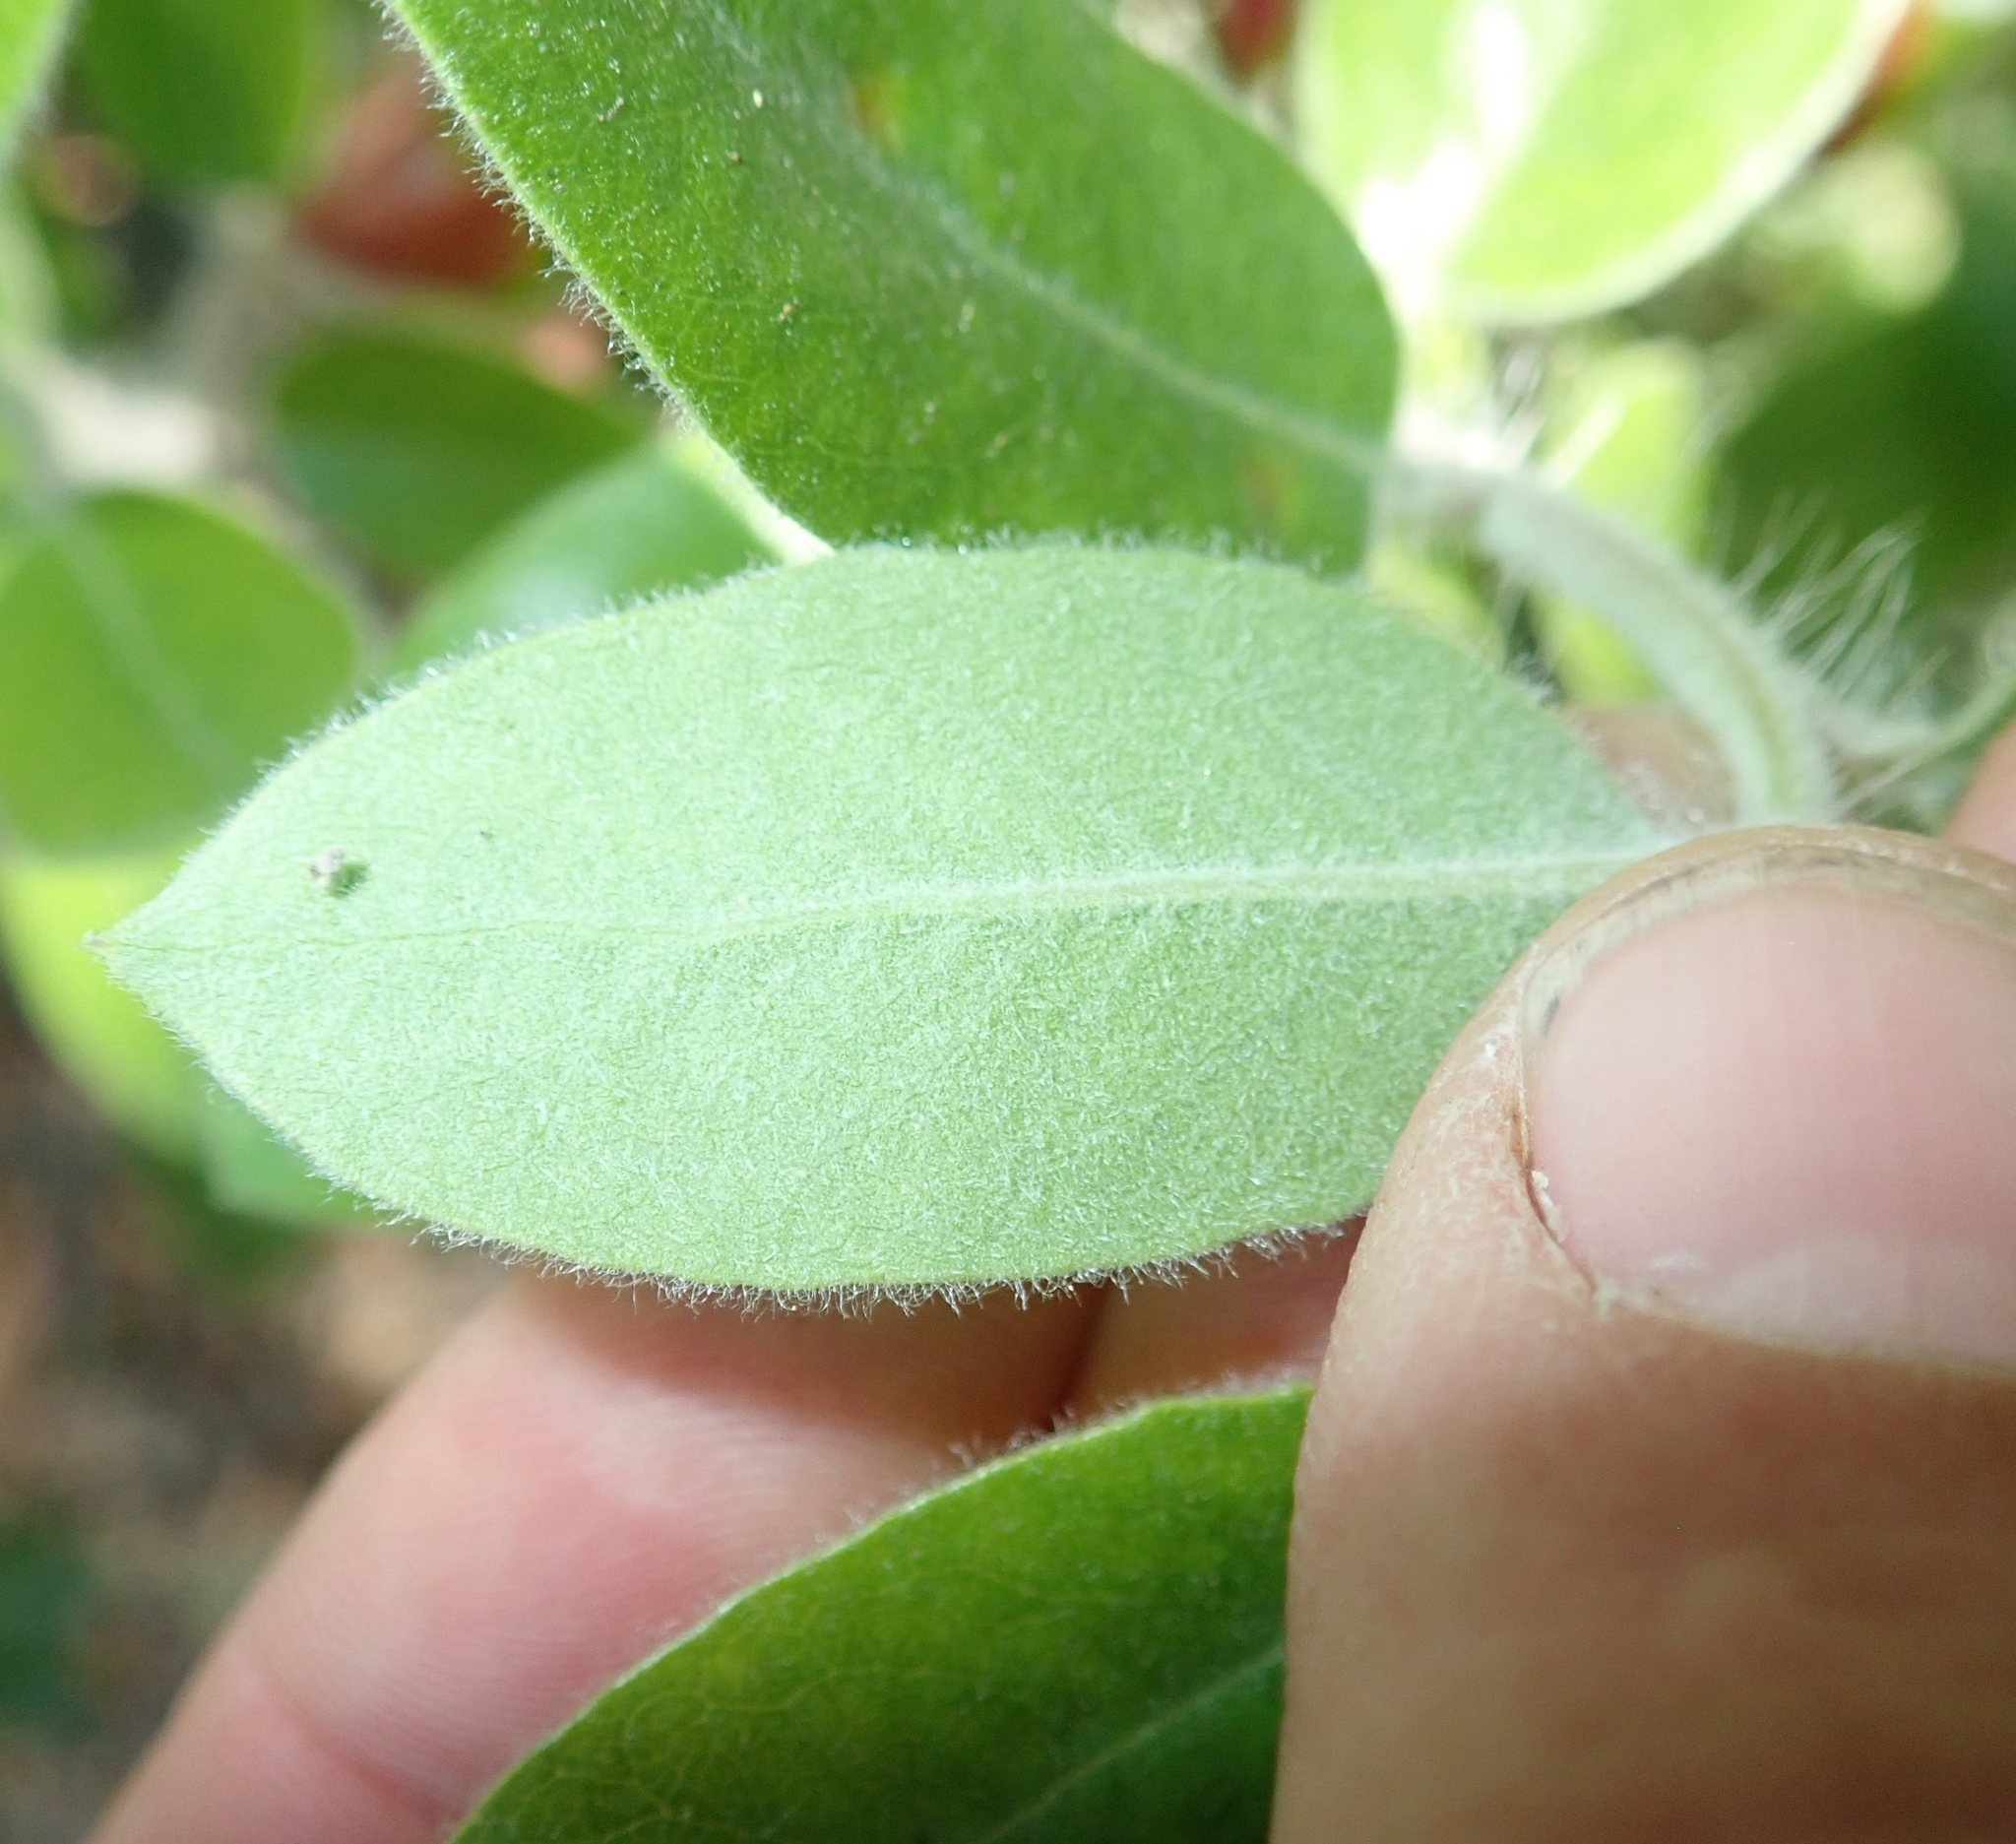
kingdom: Plantae
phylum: Tracheophyta
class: Magnoliopsida
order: Ericales
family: Ericaceae
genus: Arctostaphylos
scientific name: Arctostaphylos crustacea
